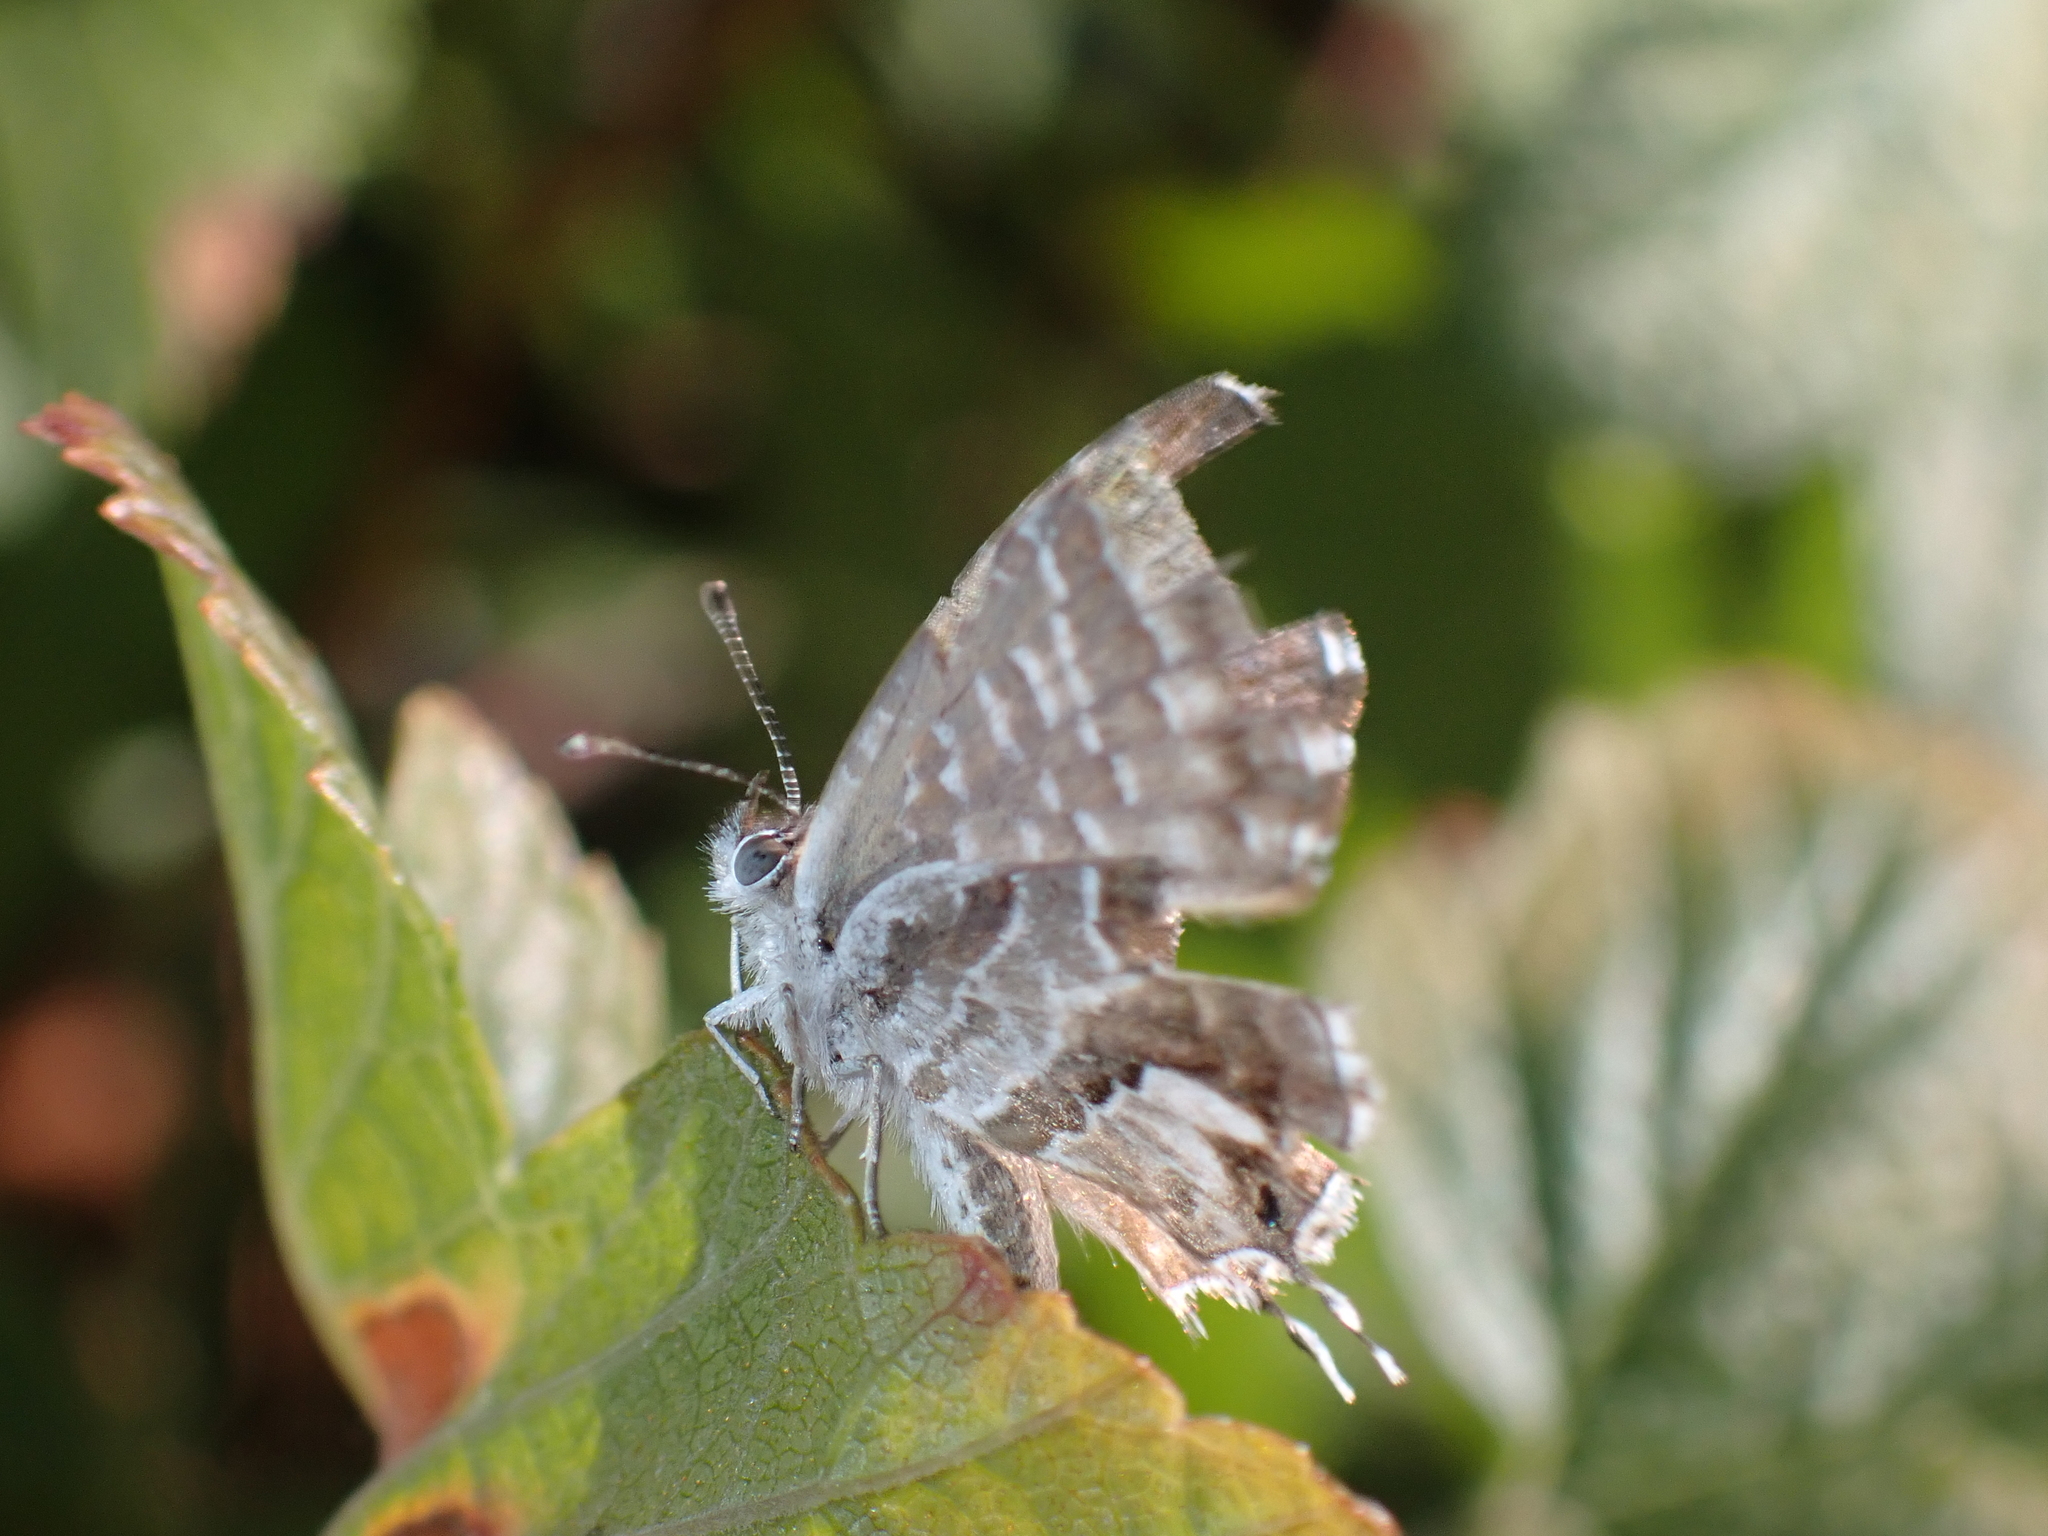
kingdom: Animalia
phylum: Arthropoda
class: Insecta
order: Lepidoptera
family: Lycaenidae
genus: Cacyreus
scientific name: Cacyreus marshalli
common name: Geranium bronze
